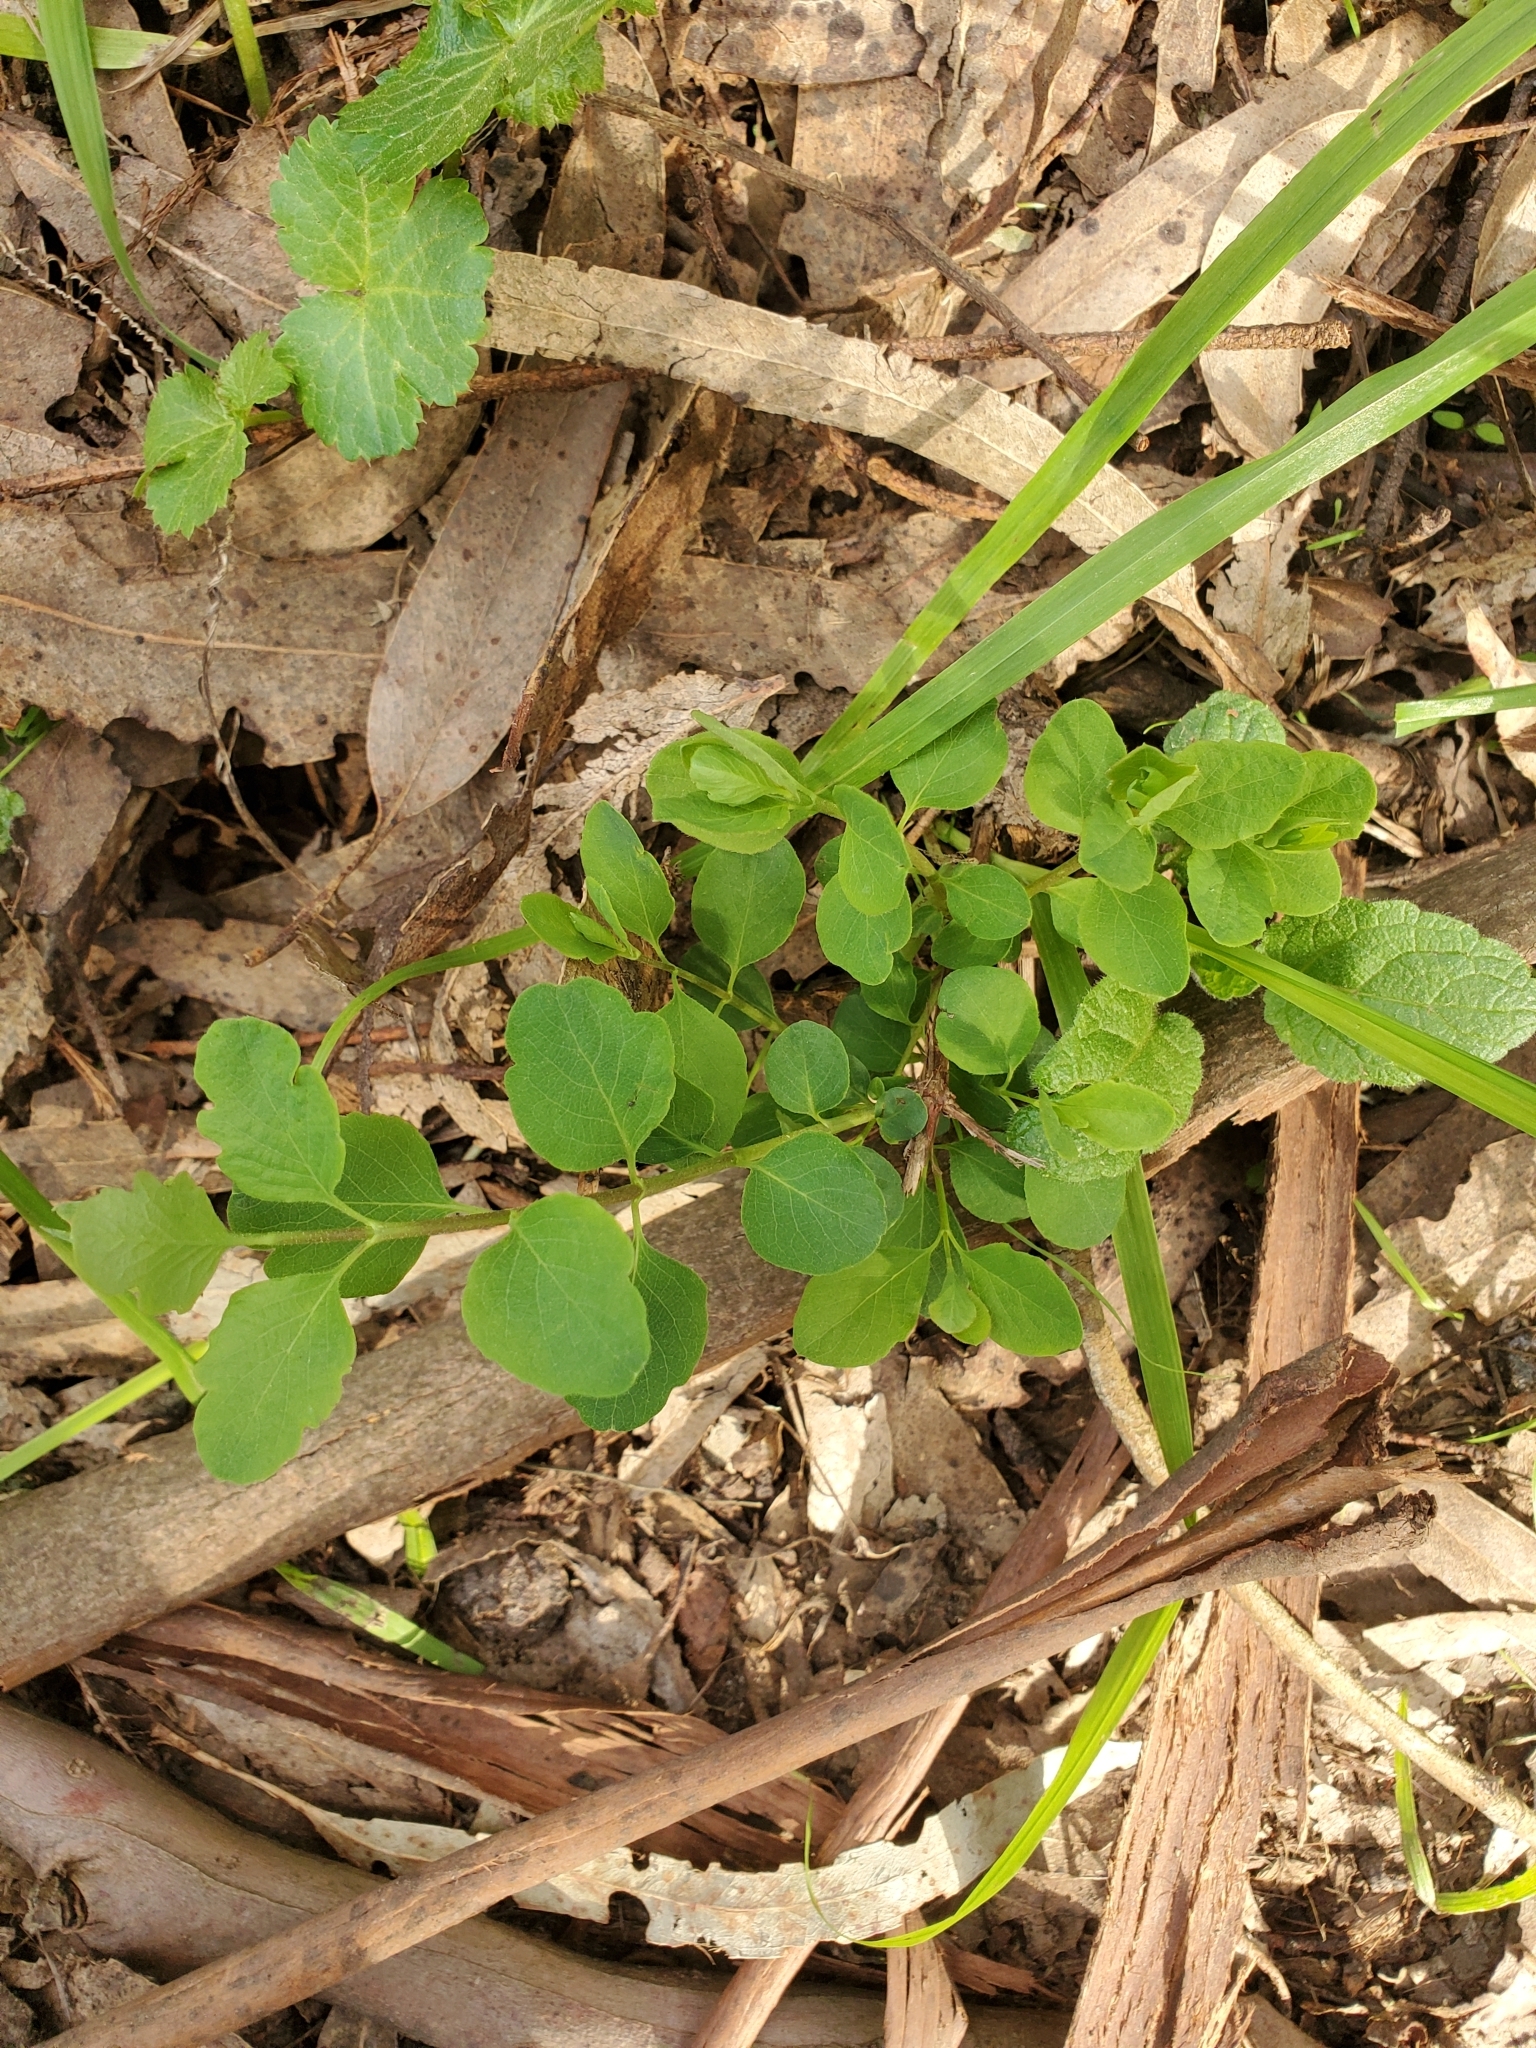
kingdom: Plantae
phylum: Tracheophyta
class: Magnoliopsida
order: Dipsacales
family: Caprifoliaceae
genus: Symphoricarpos
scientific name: Symphoricarpos mollis
